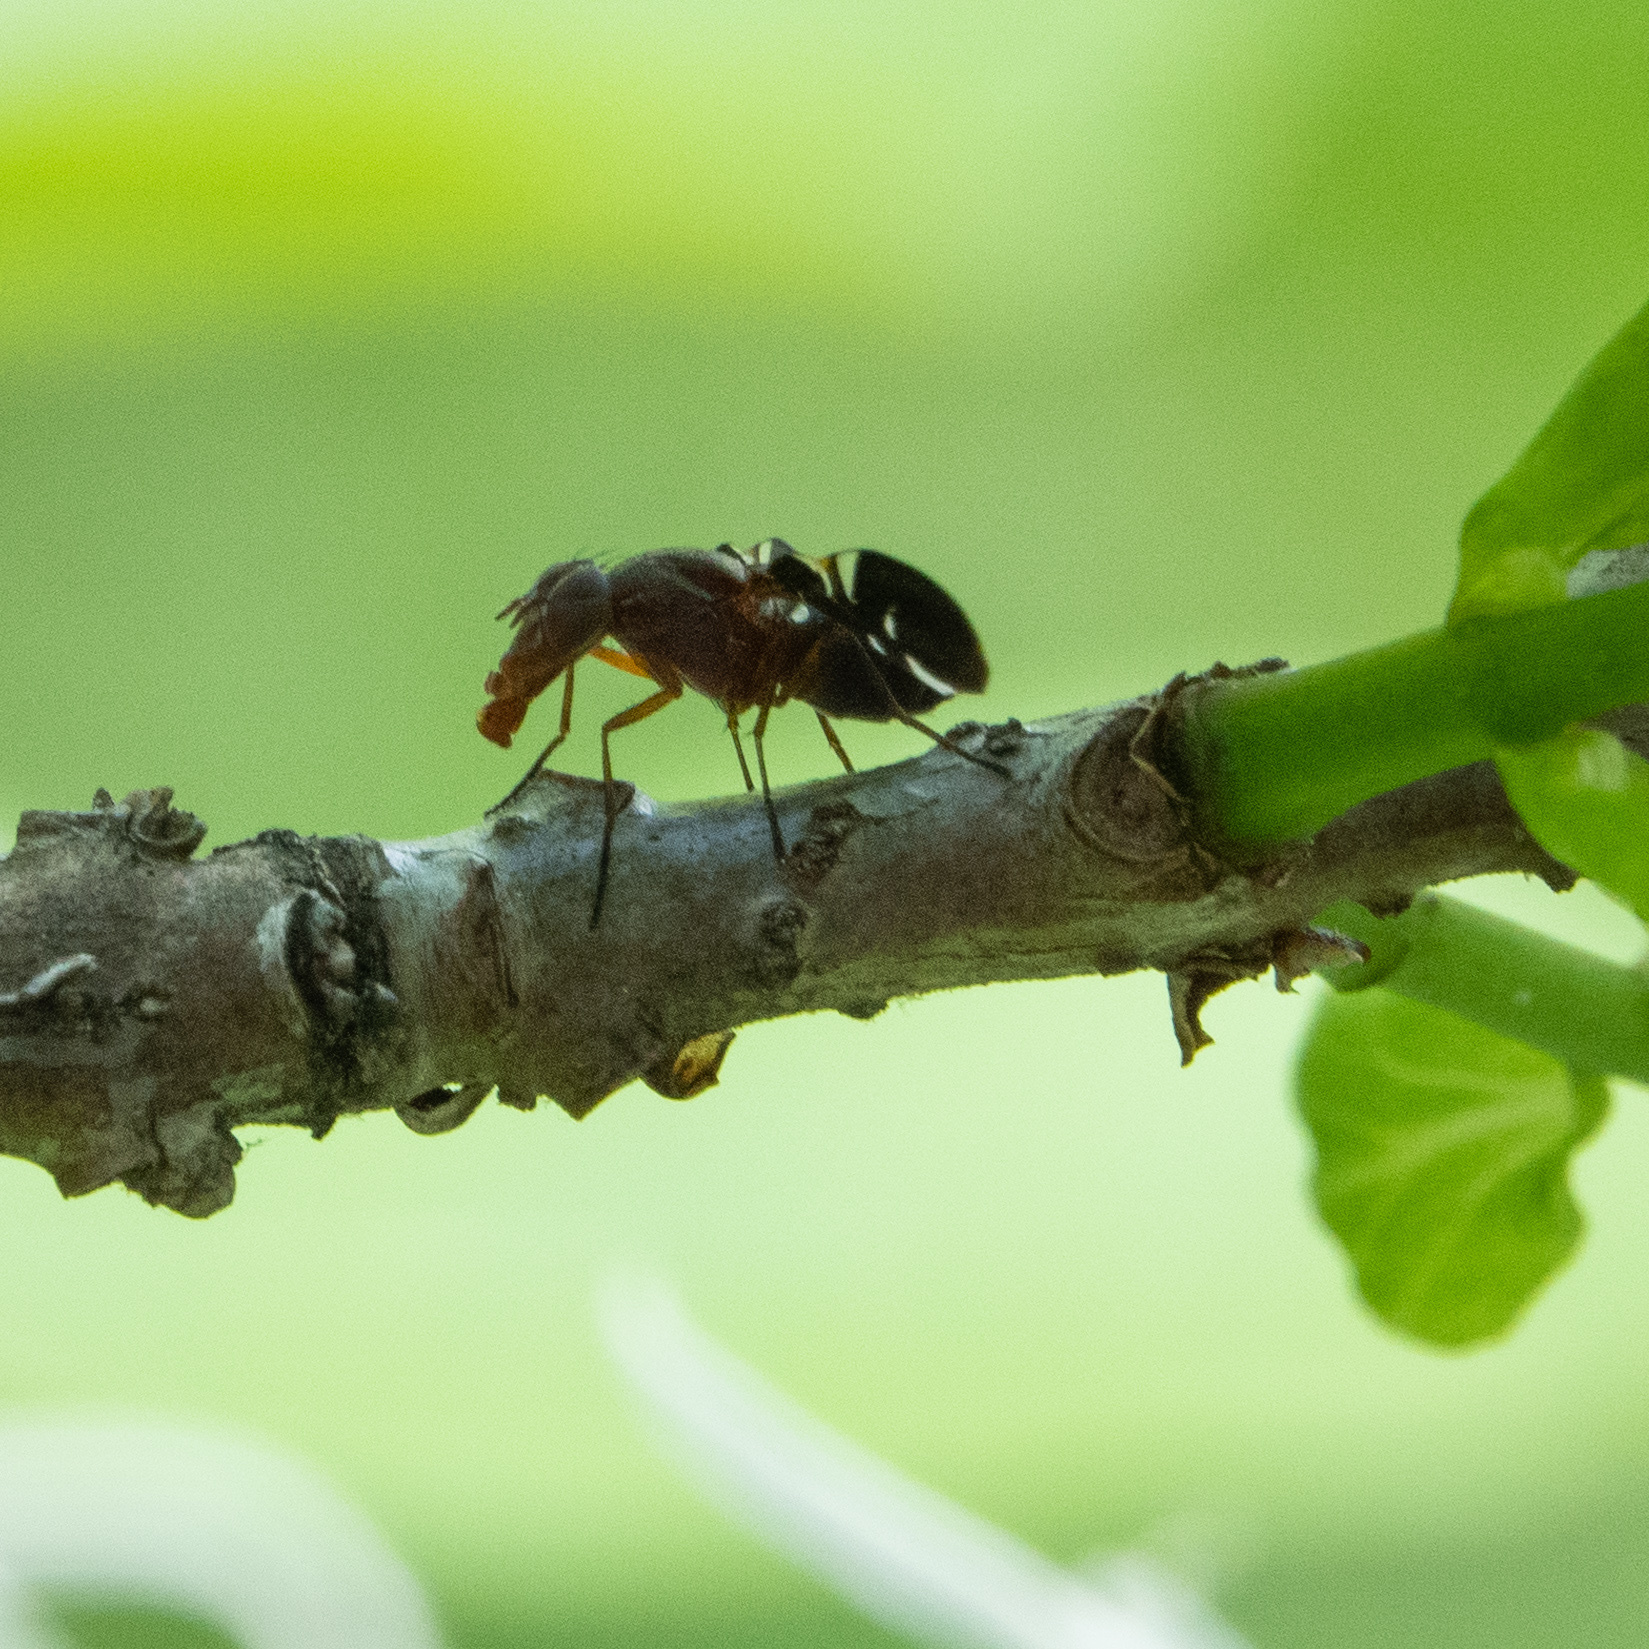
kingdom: Animalia
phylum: Arthropoda
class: Insecta
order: Diptera
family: Ulidiidae
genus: Delphinia
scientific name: Delphinia picta
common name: Common picture-winged fly
